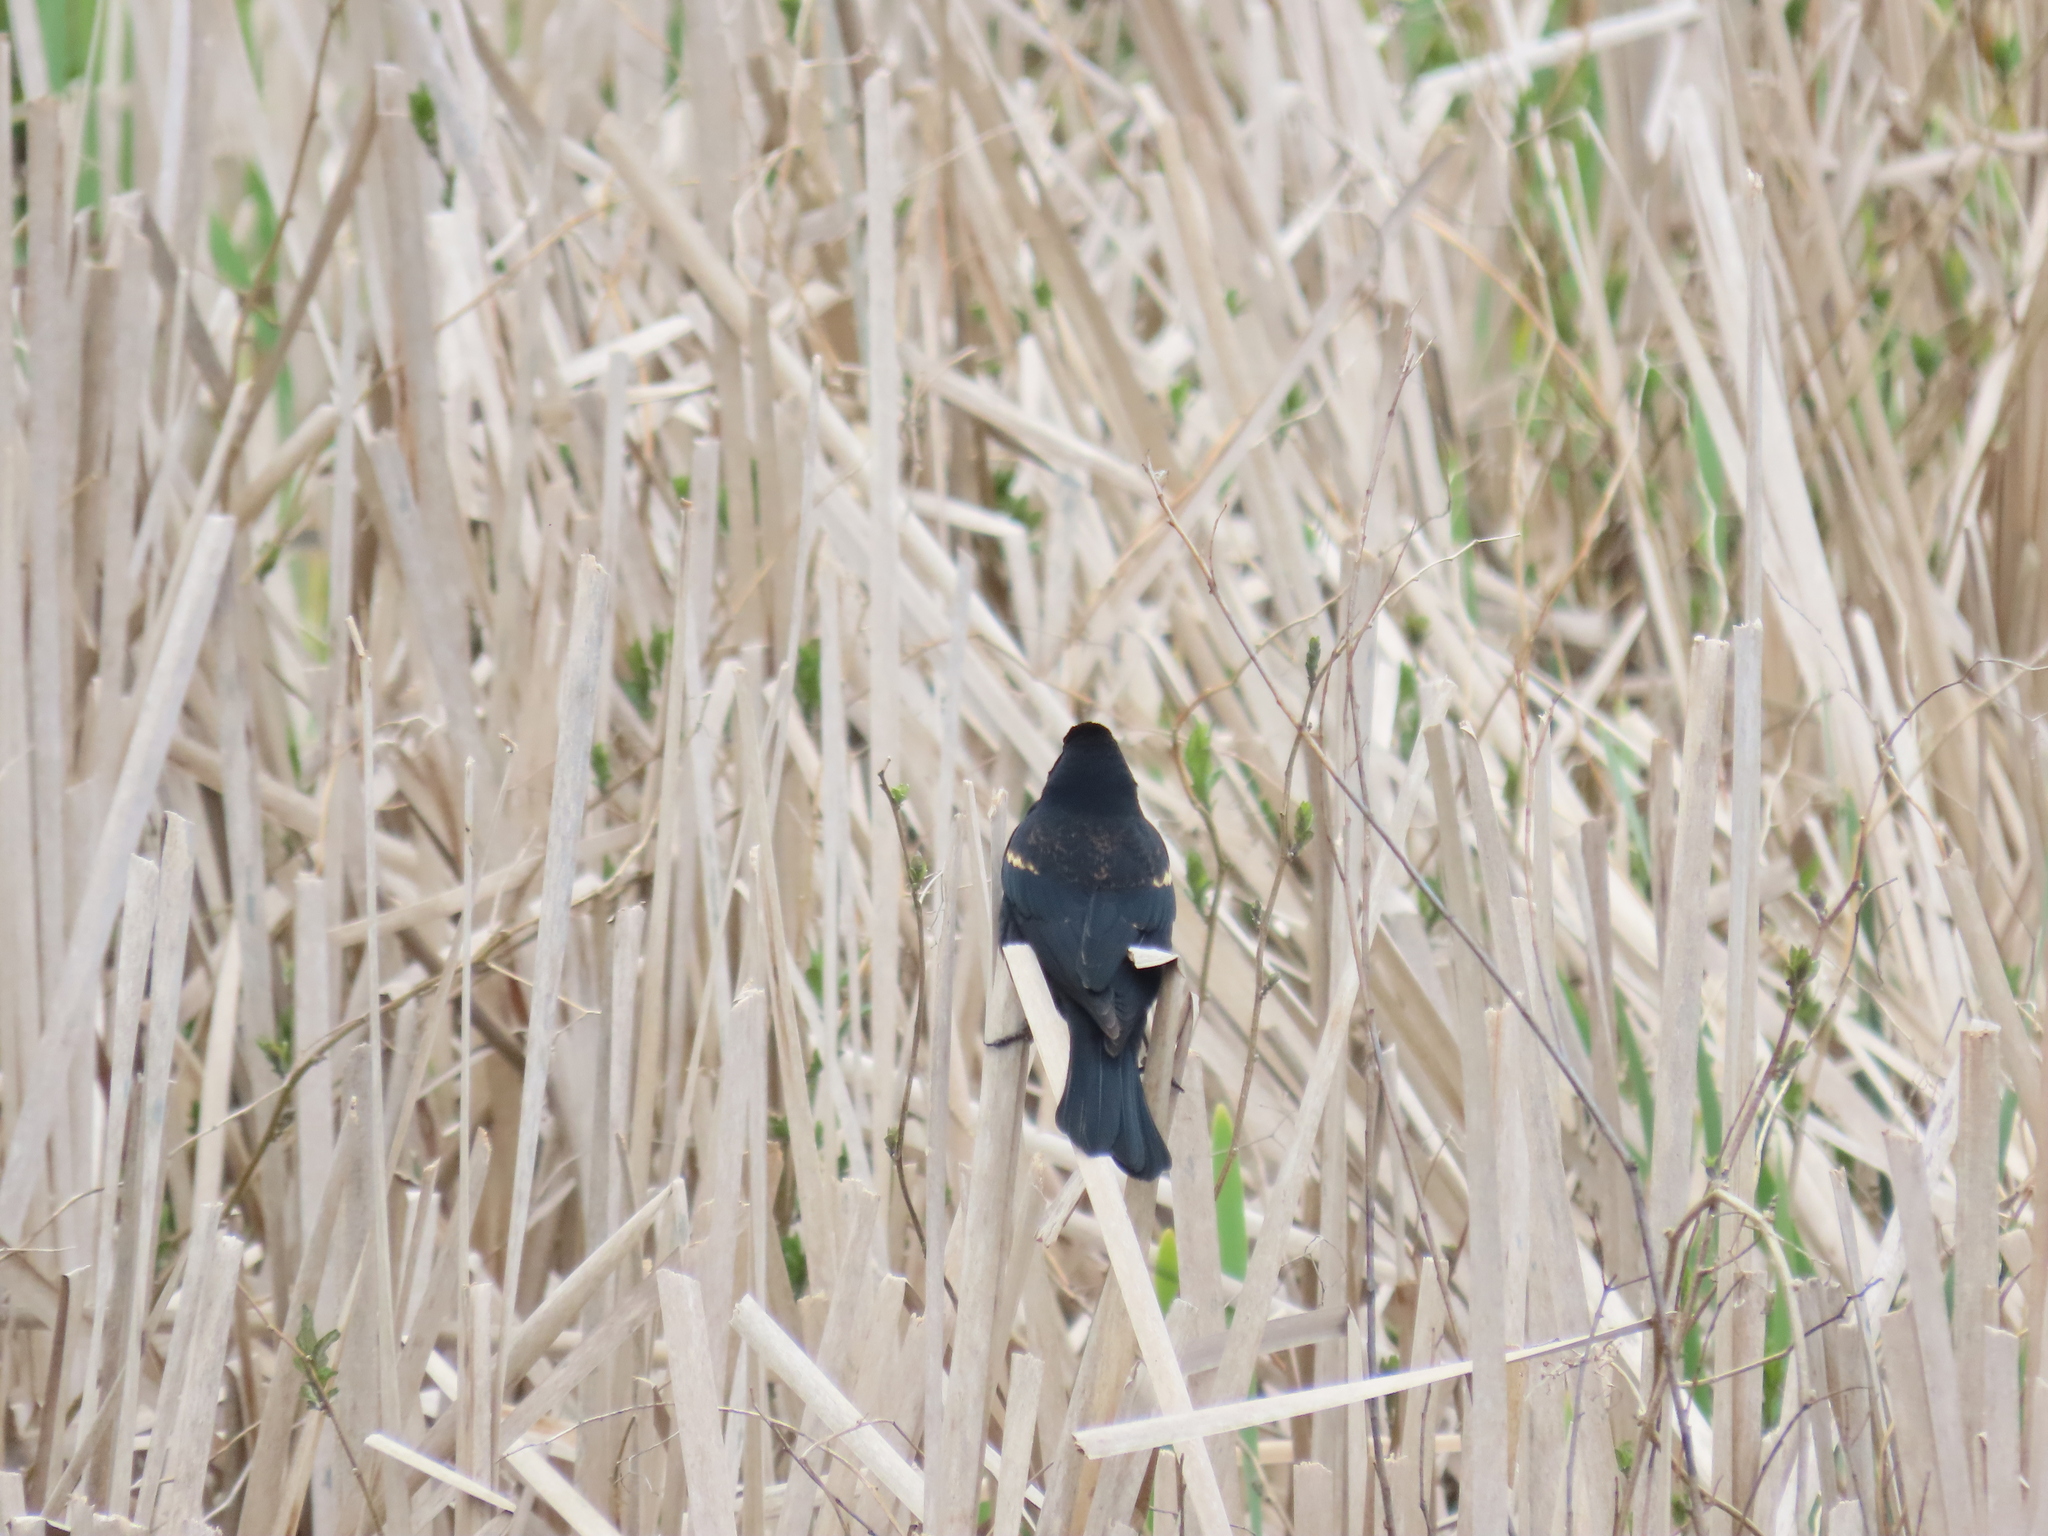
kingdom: Animalia
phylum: Chordata
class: Aves
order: Passeriformes
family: Icteridae
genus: Agelaius
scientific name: Agelaius phoeniceus
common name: Red-winged blackbird
